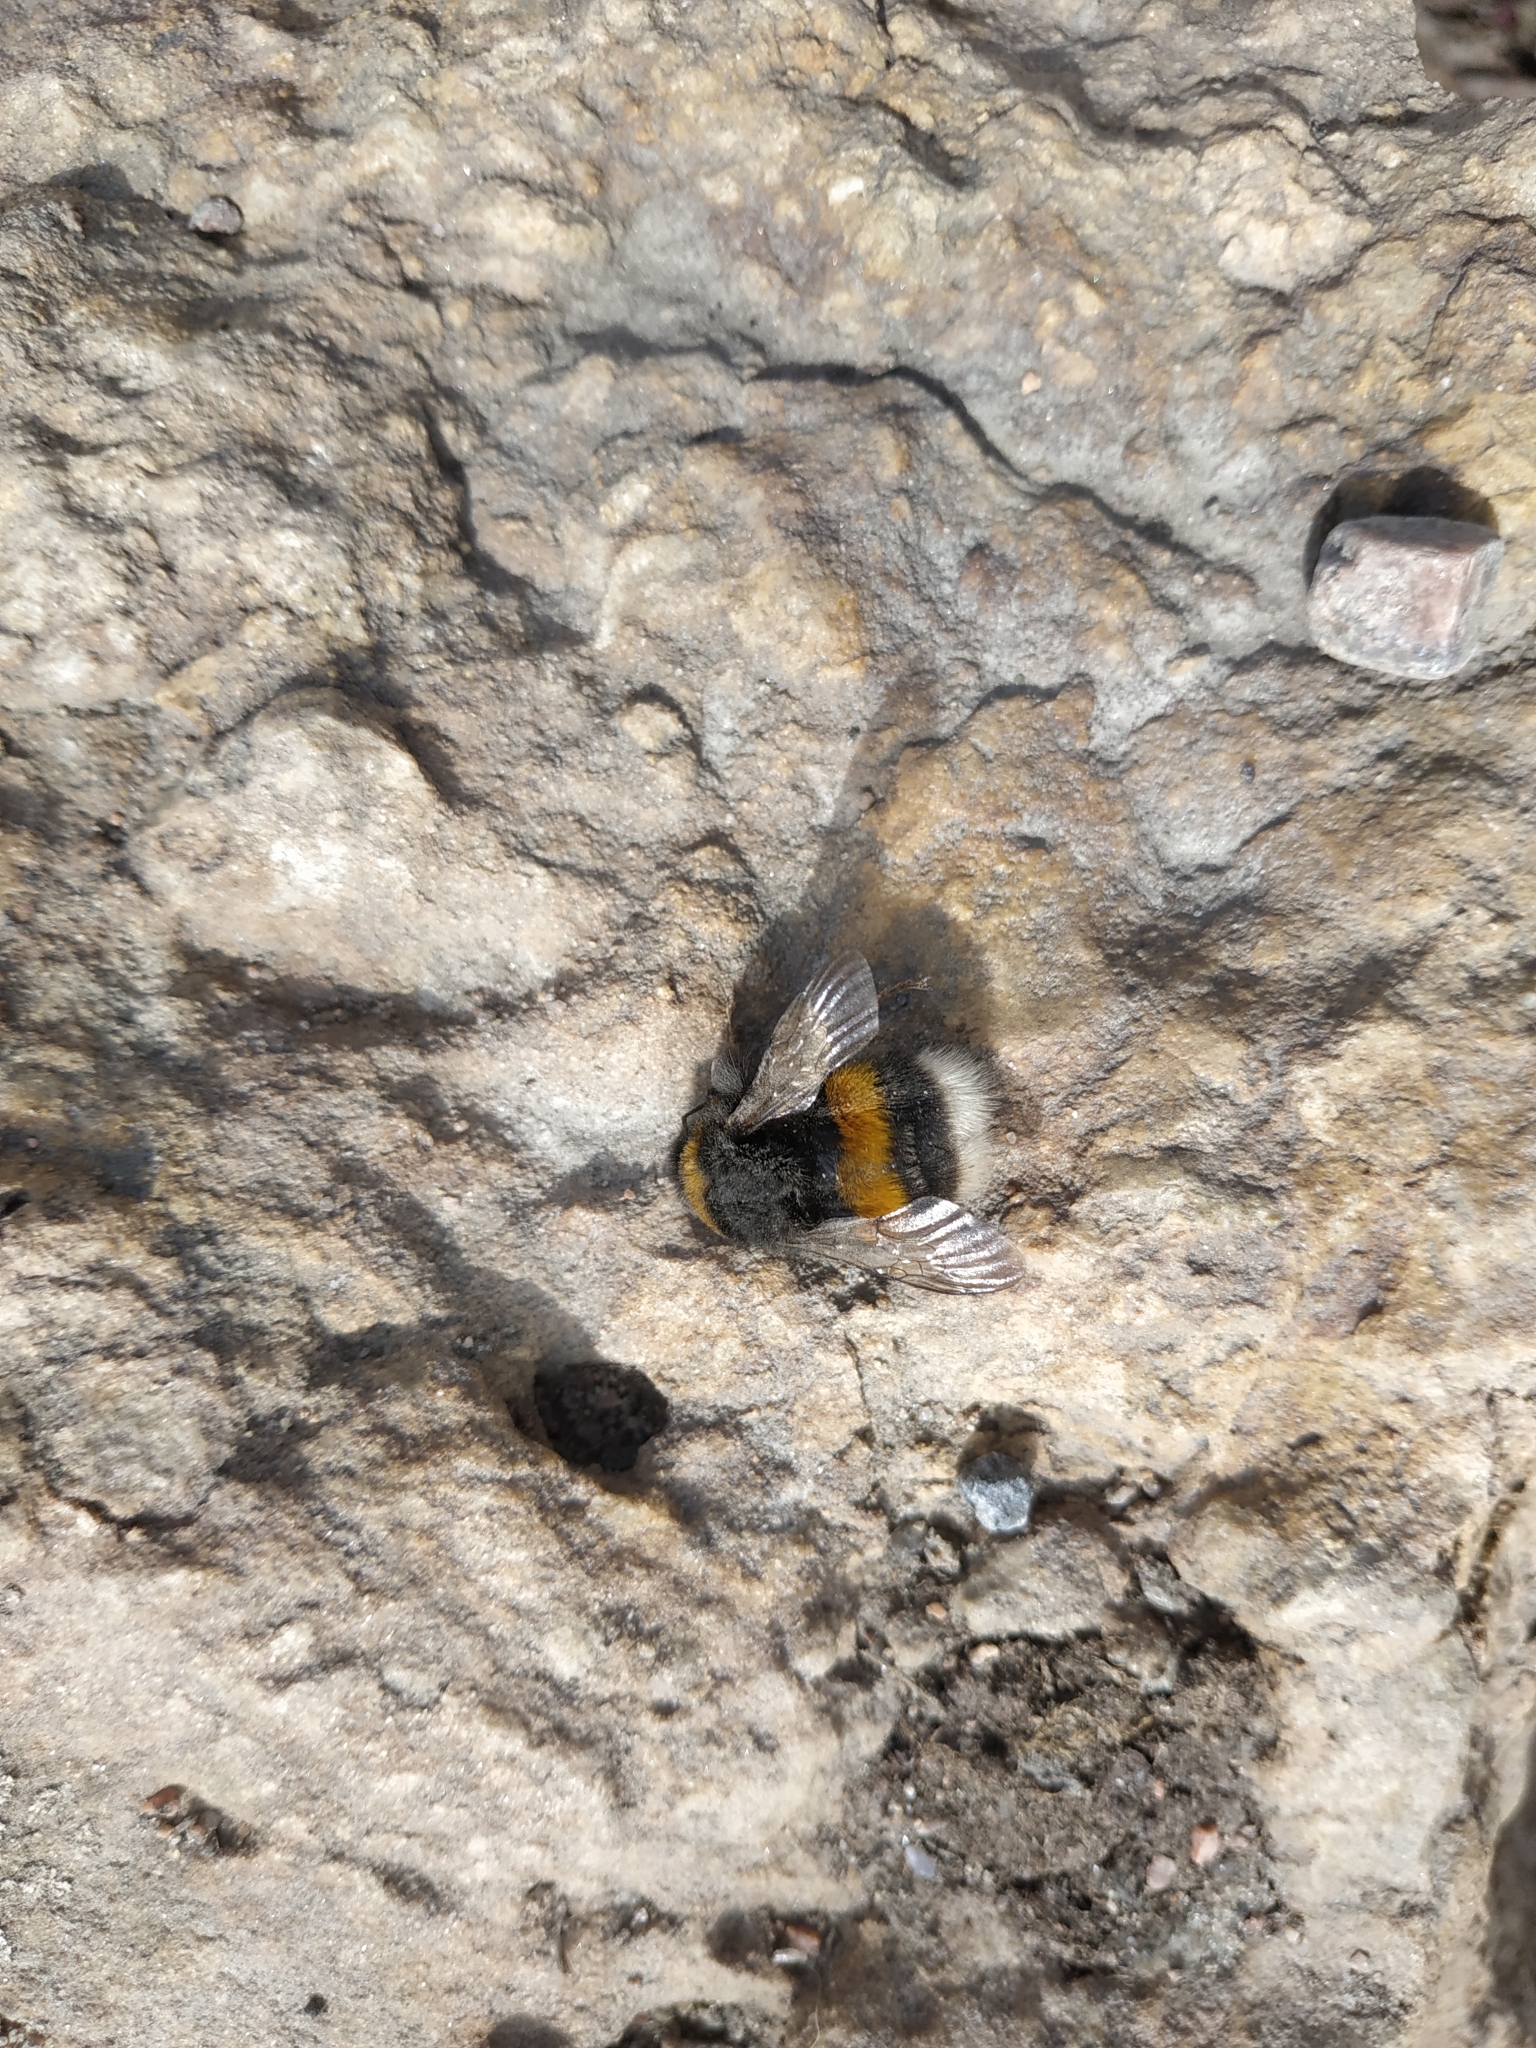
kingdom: Animalia
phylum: Arthropoda
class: Insecta
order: Hymenoptera
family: Apidae
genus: Bombus
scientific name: Bombus
